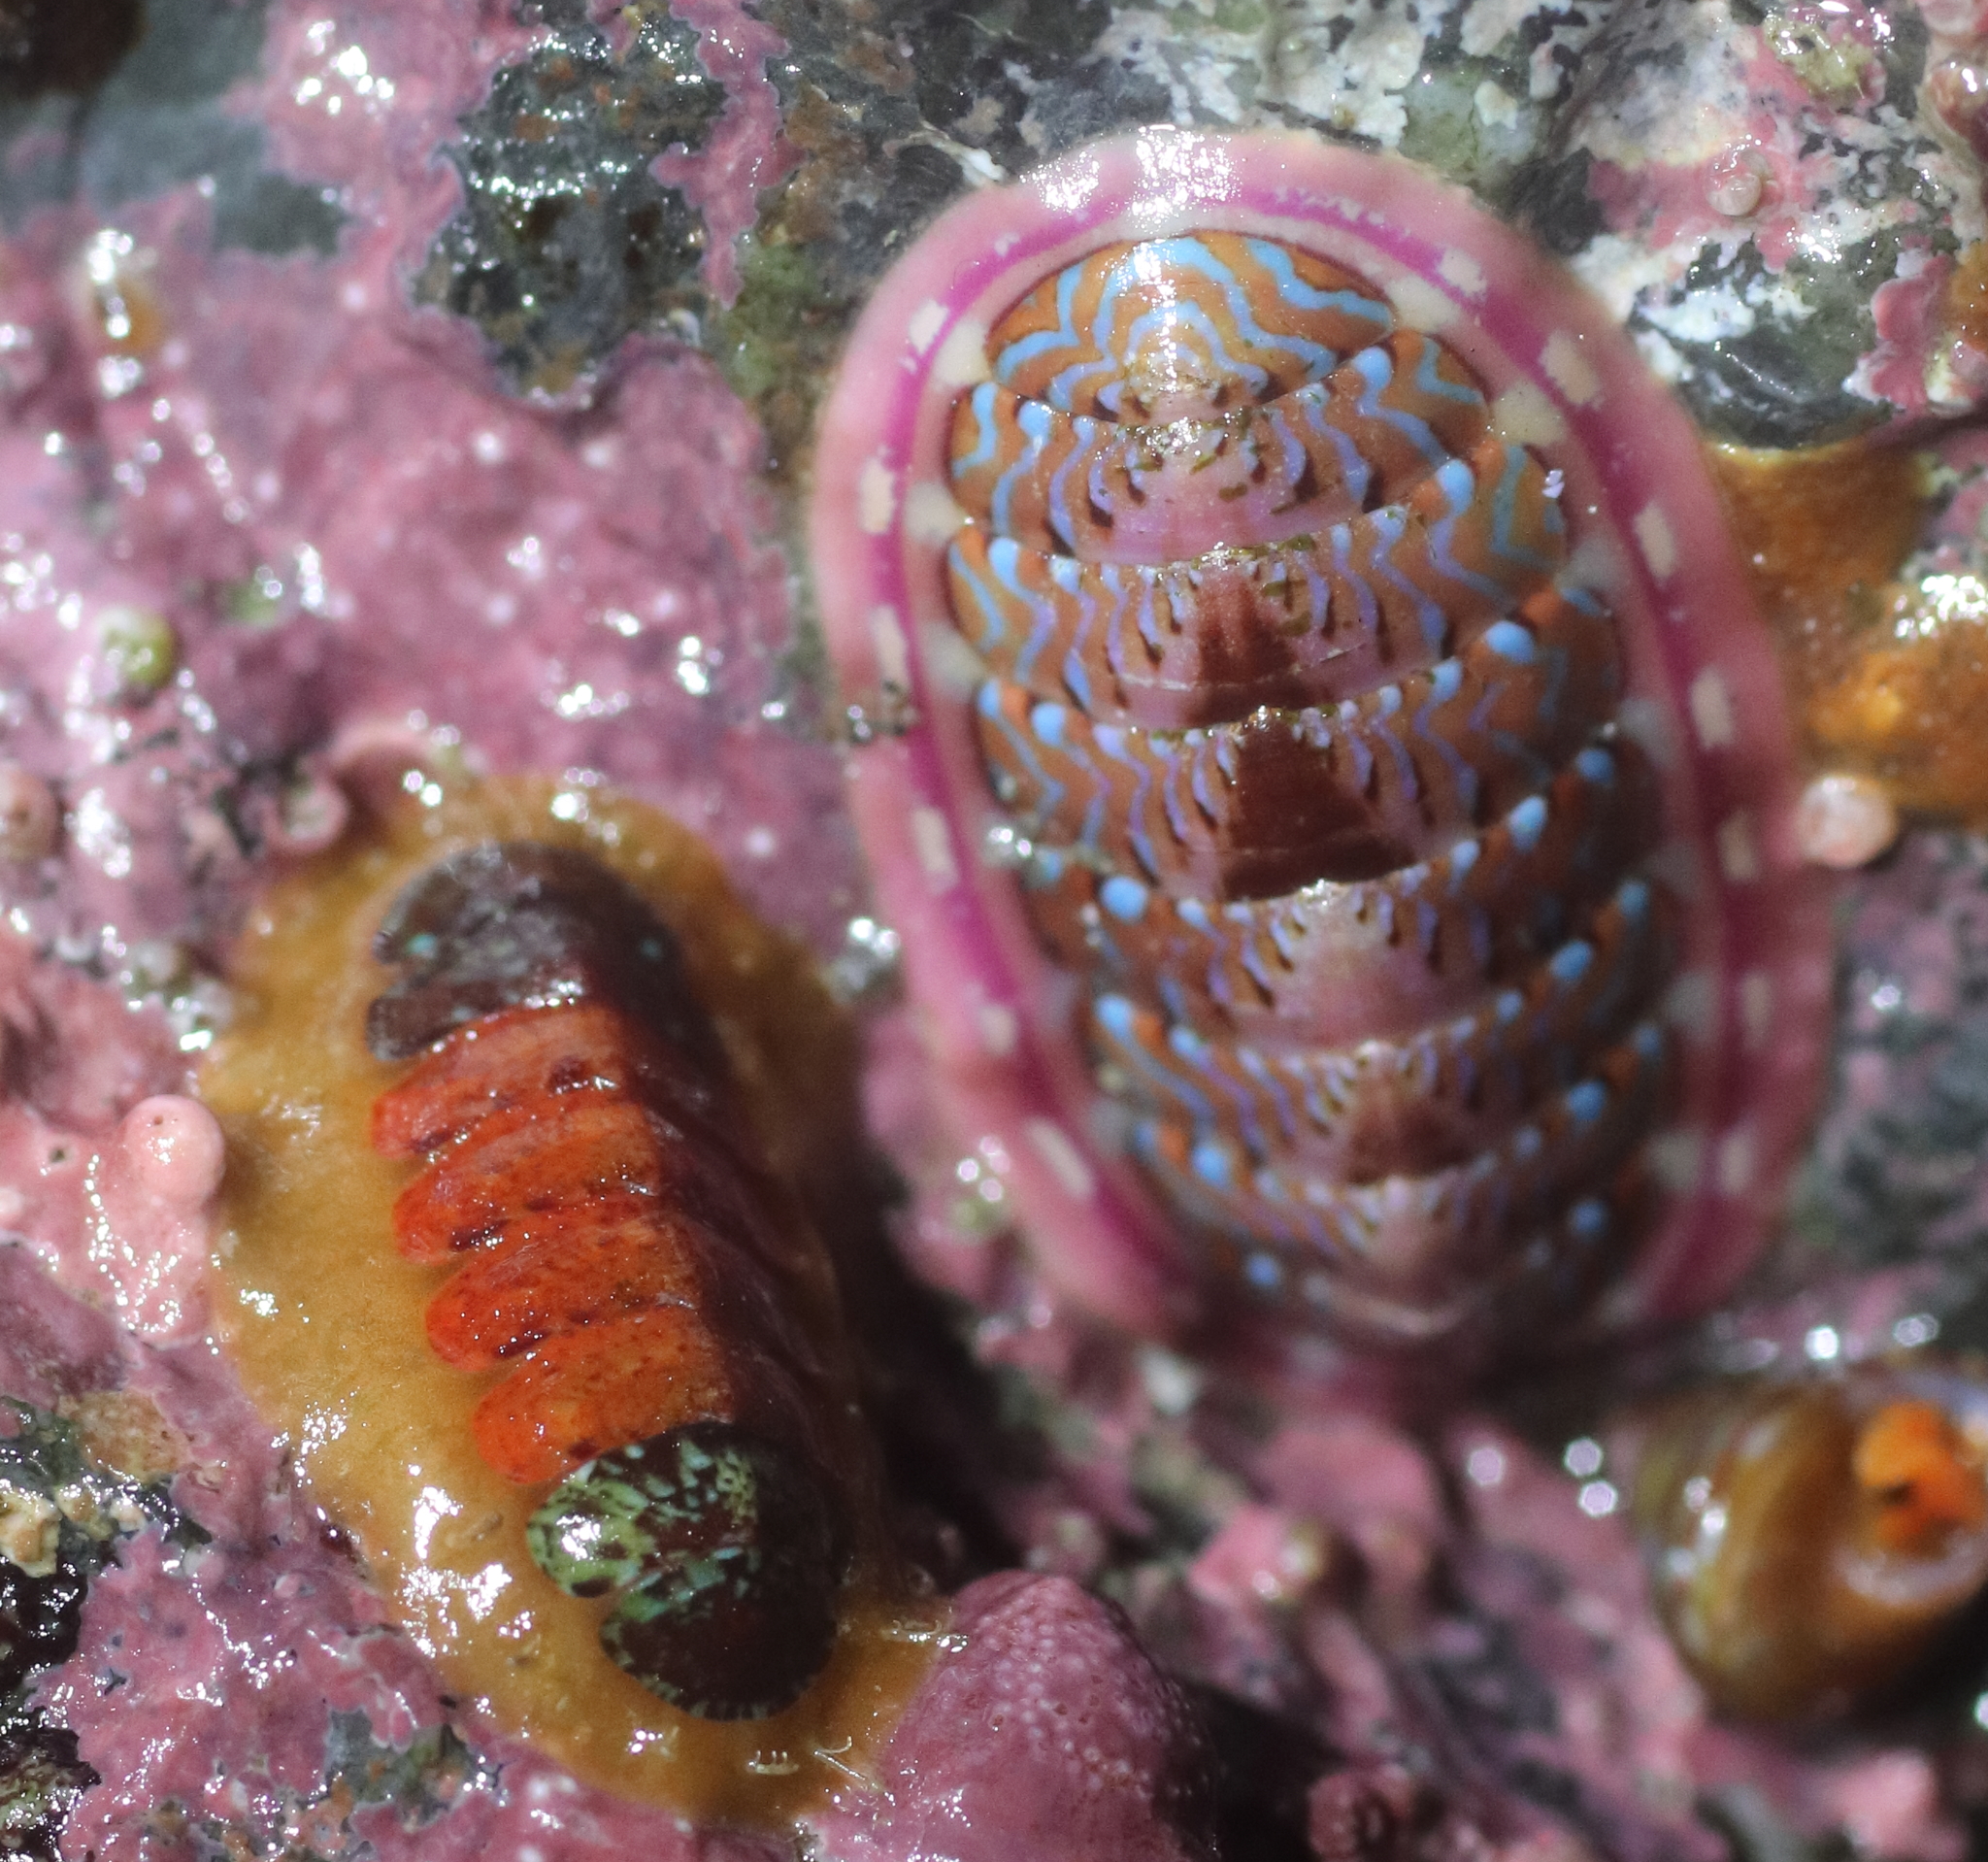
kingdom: Animalia
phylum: Mollusca
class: Polyplacophora
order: Chitonida
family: Mopaliidae
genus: Dendrochiton
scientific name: Dendrochiton flectens
